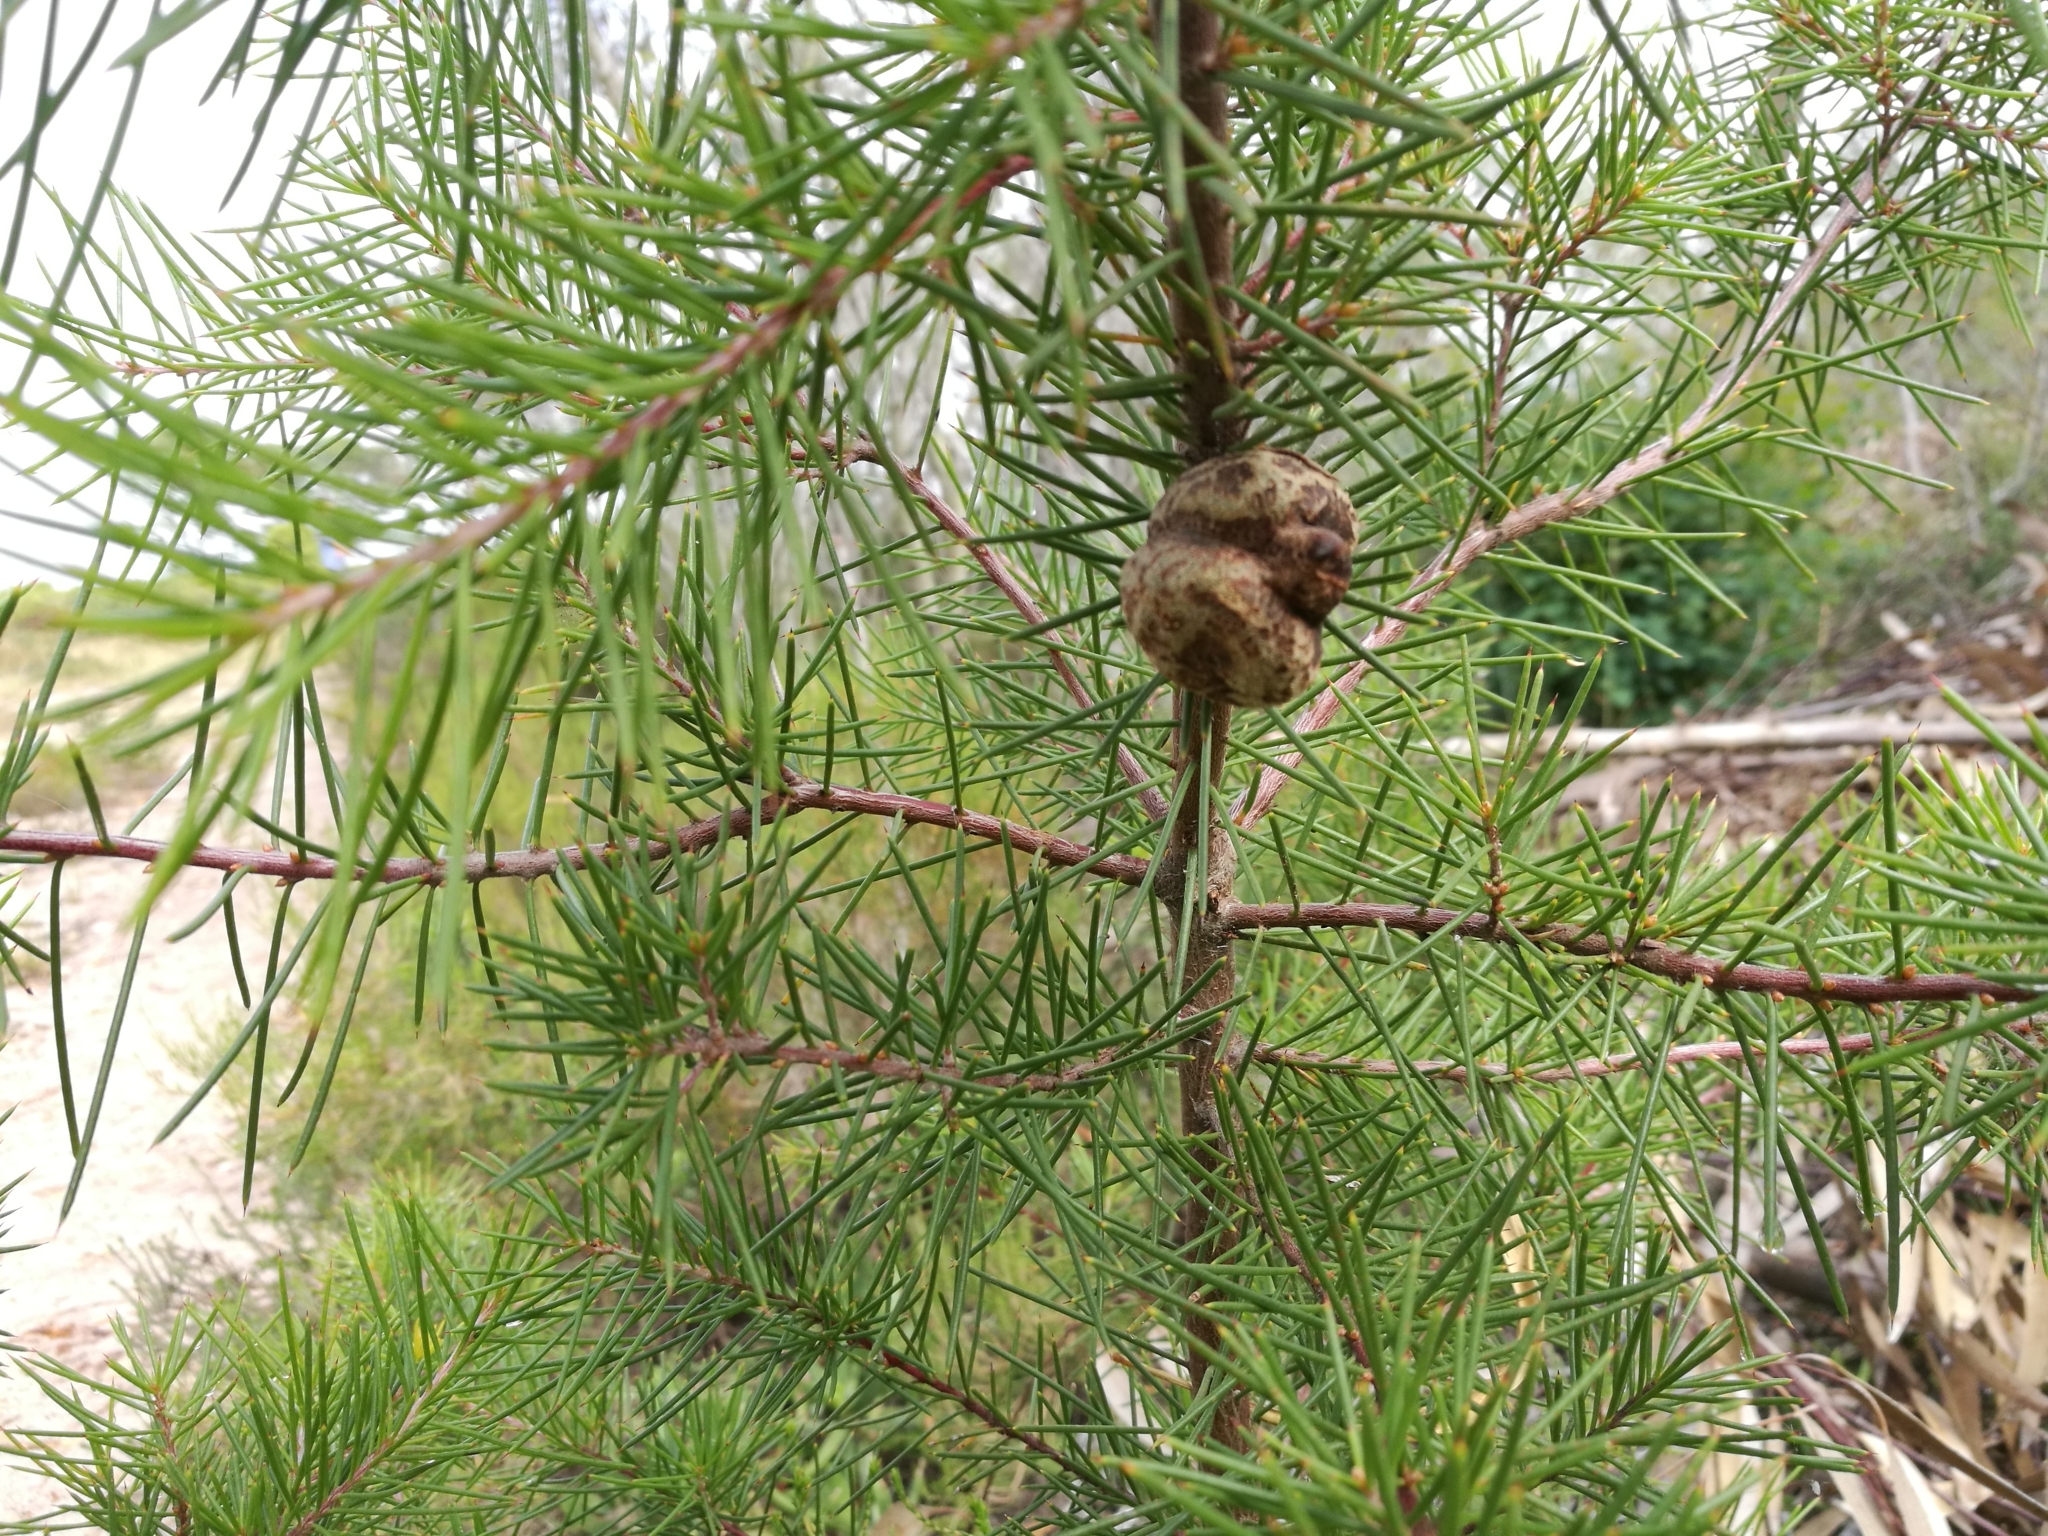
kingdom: Plantae
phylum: Tracheophyta
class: Magnoliopsida
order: Proteales
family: Proteaceae
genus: Hakea
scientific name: Hakea sericea
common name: Needle bush
